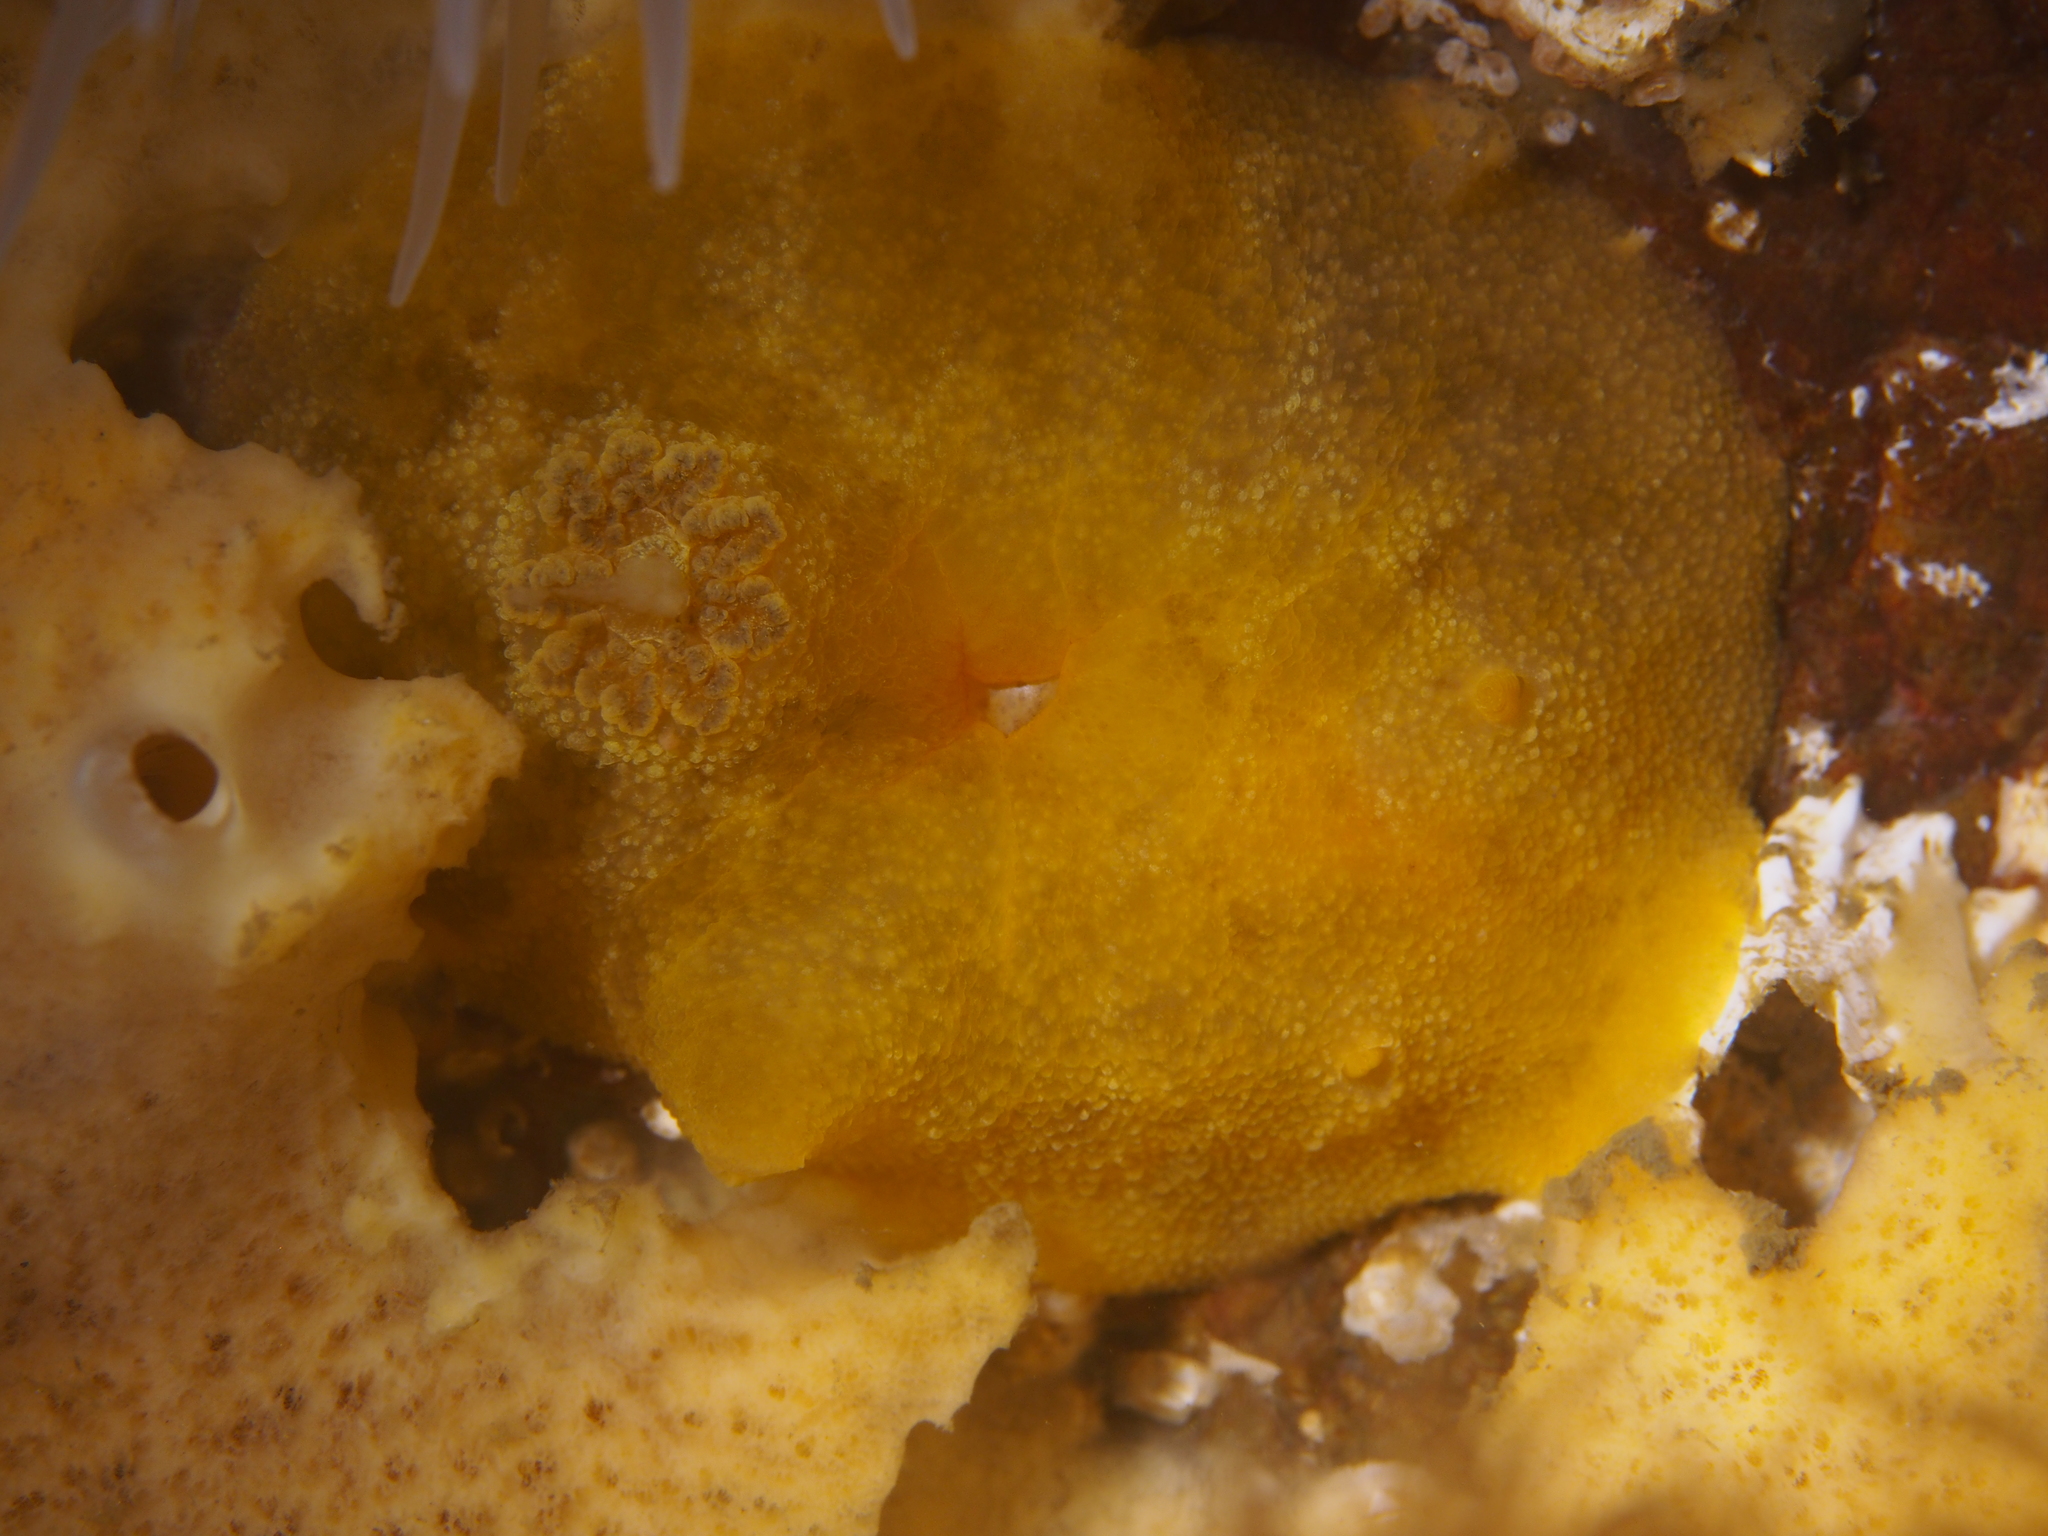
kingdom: Animalia
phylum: Mollusca
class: Gastropoda
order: Nudibranchia
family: Dorididae
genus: Doris
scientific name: Doris pseudoargus
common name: Sea lemon
